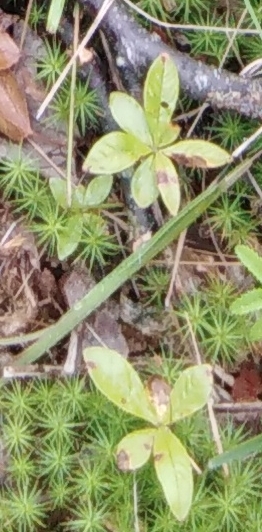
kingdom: Plantae
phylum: Tracheophyta
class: Magnoliopsida
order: Ericales
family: Primulaceae
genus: Lysimachia
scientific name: Lysimachia europaea
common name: Arctic starflower
